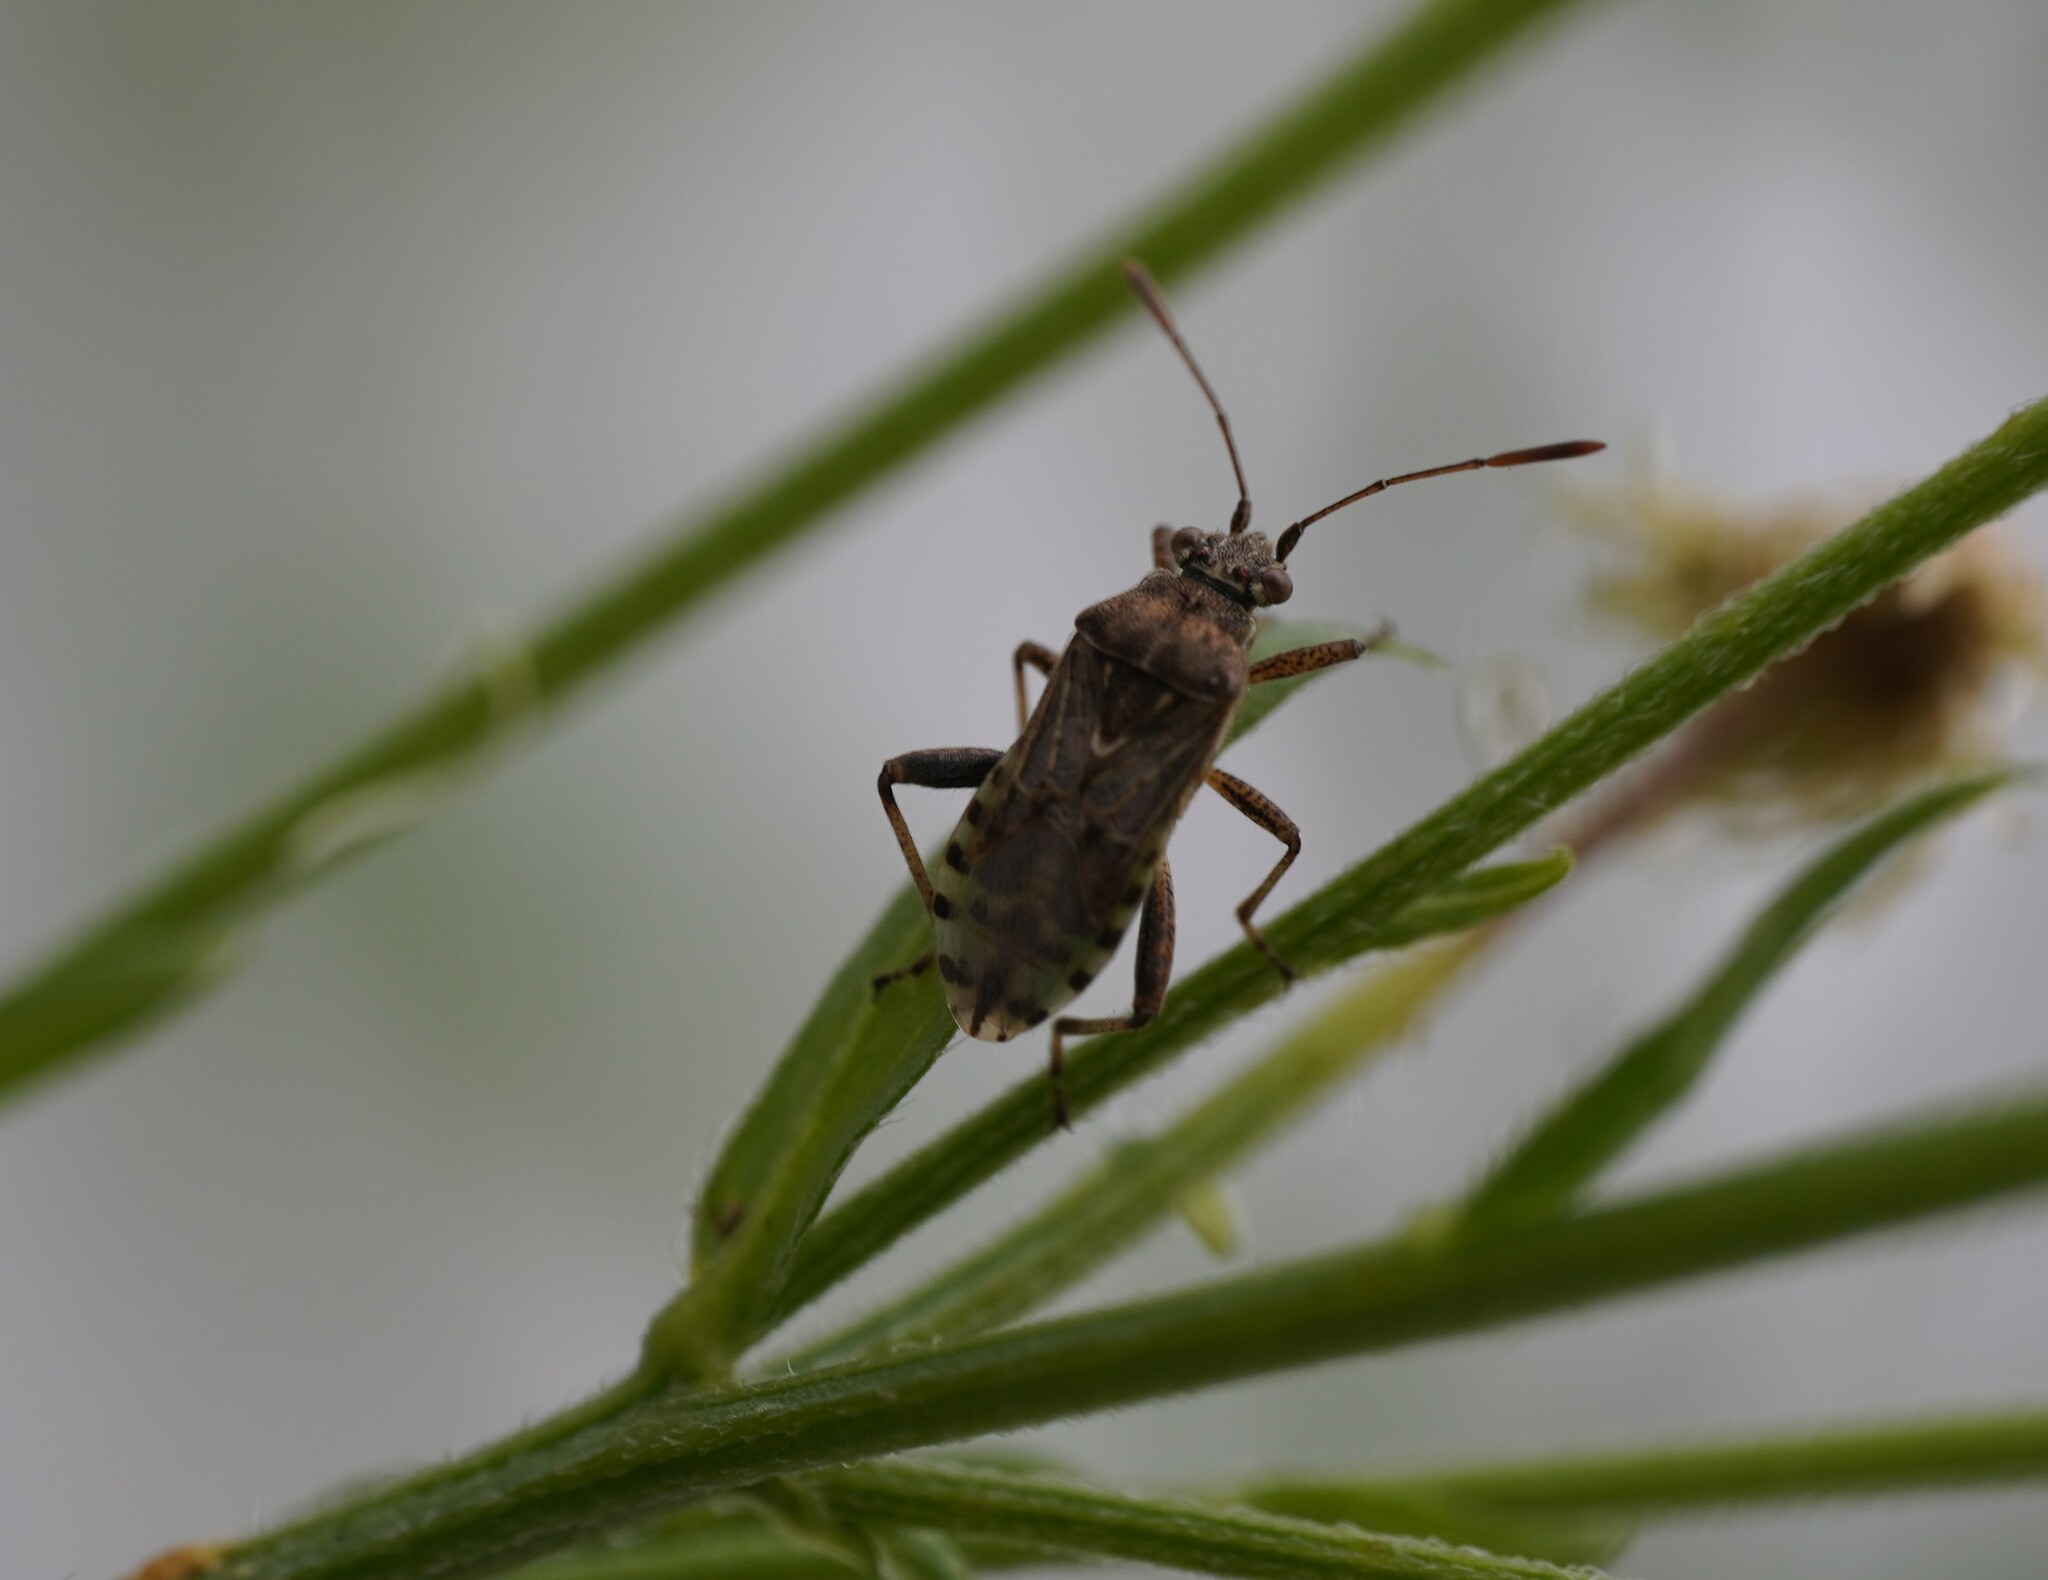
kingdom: Animalia
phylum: Arthropoda
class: Insecta
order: Hemiptera
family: Rhopalidae
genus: Stictopleurus
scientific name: Stictopleurus punctatonervosus
